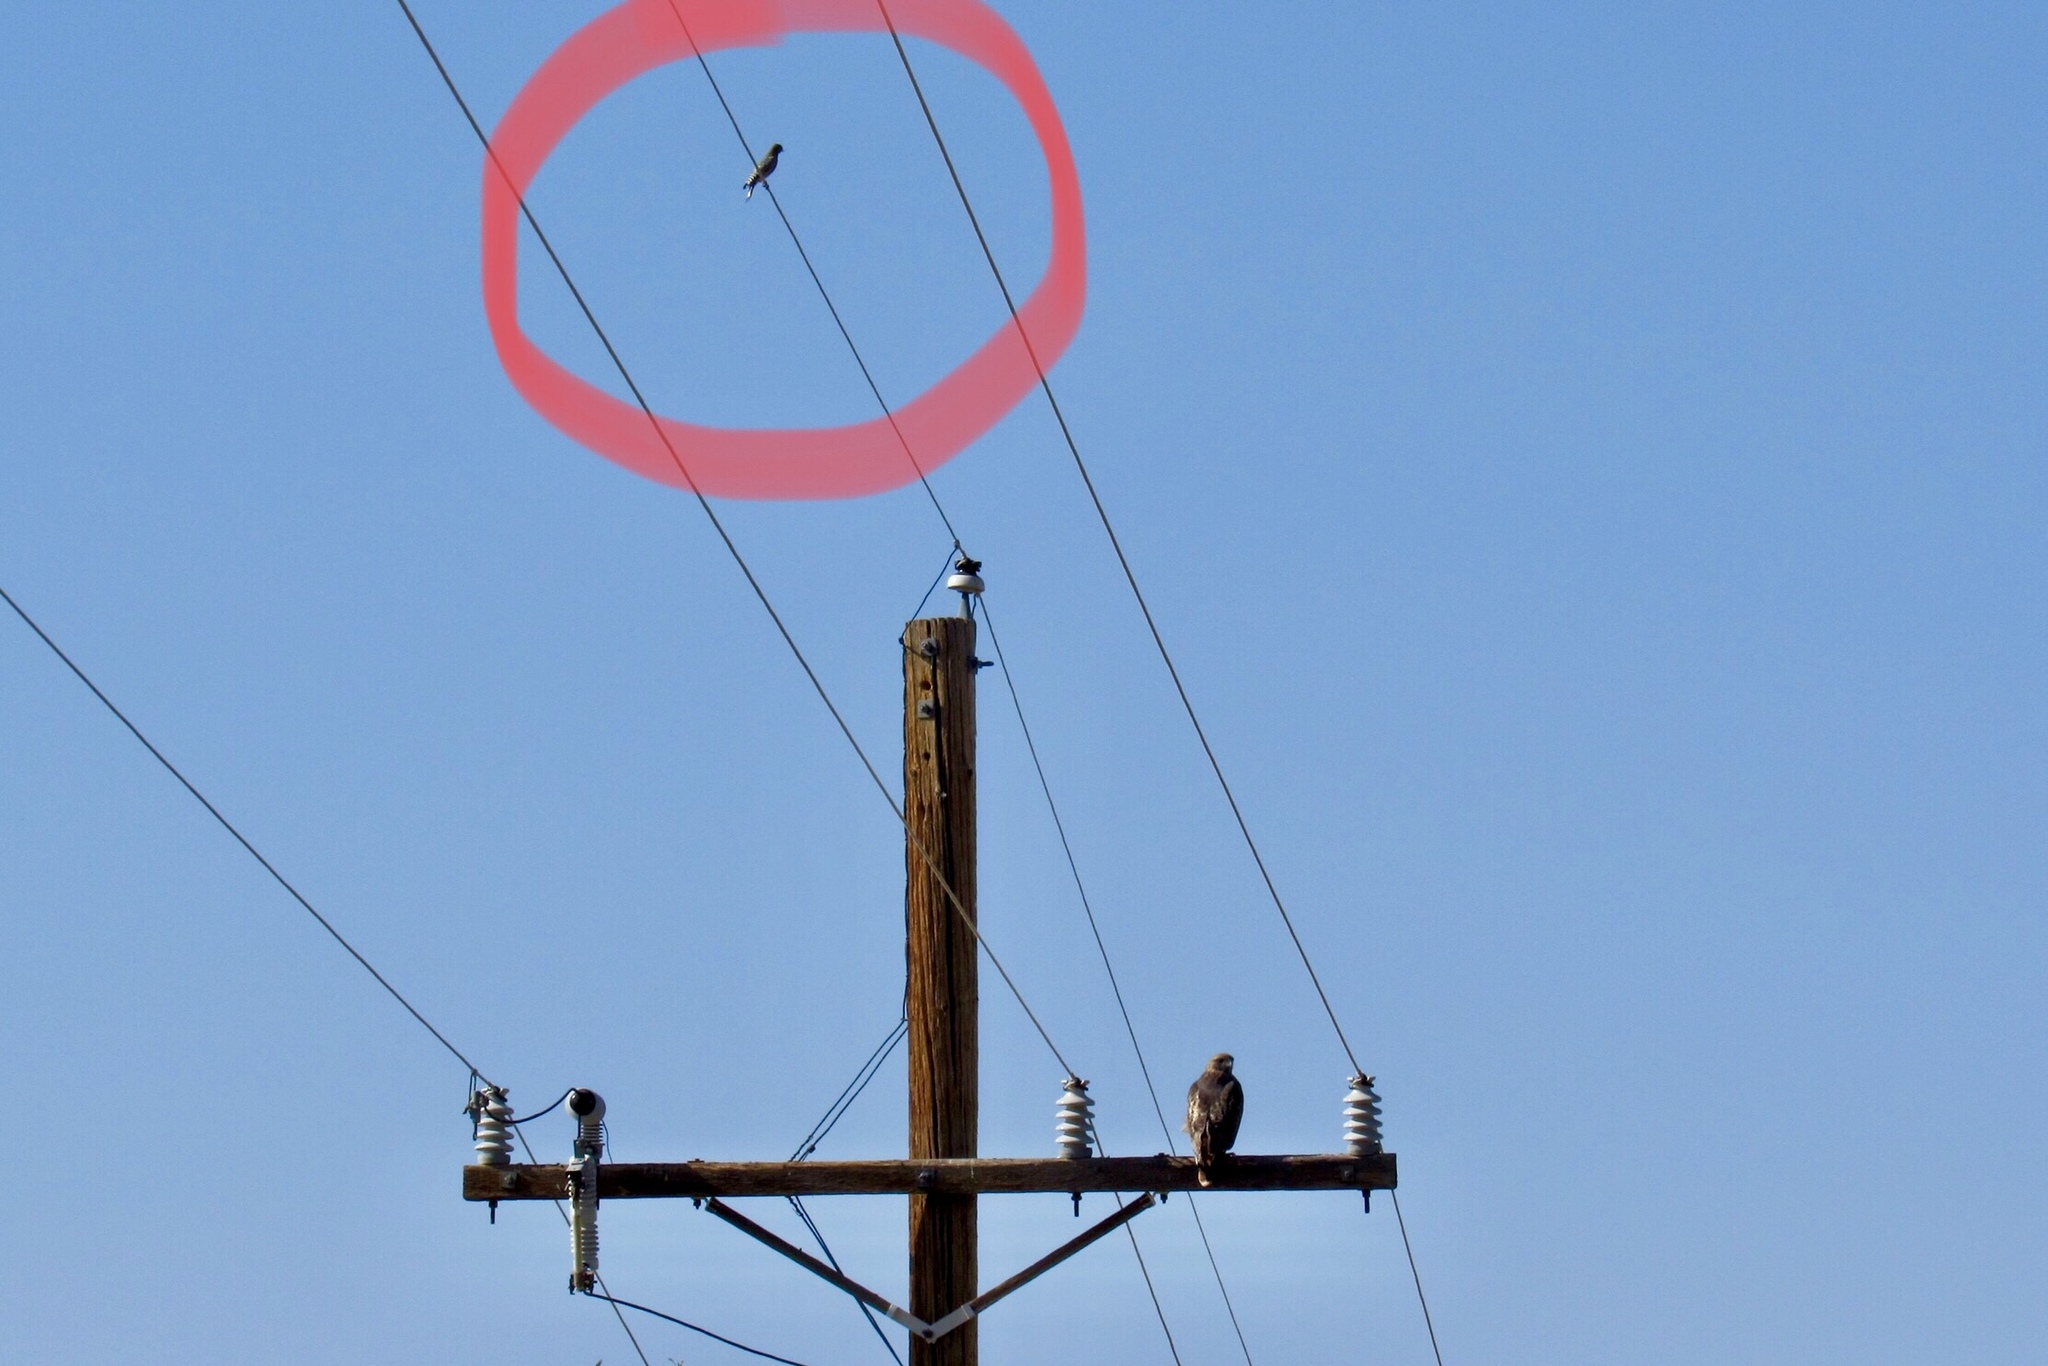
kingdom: Animalia
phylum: Chordata
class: Aves
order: Piciformes
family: Picidae
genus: Melanerpes
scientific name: Melanerpes uropygialis
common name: Gila woodpecker
